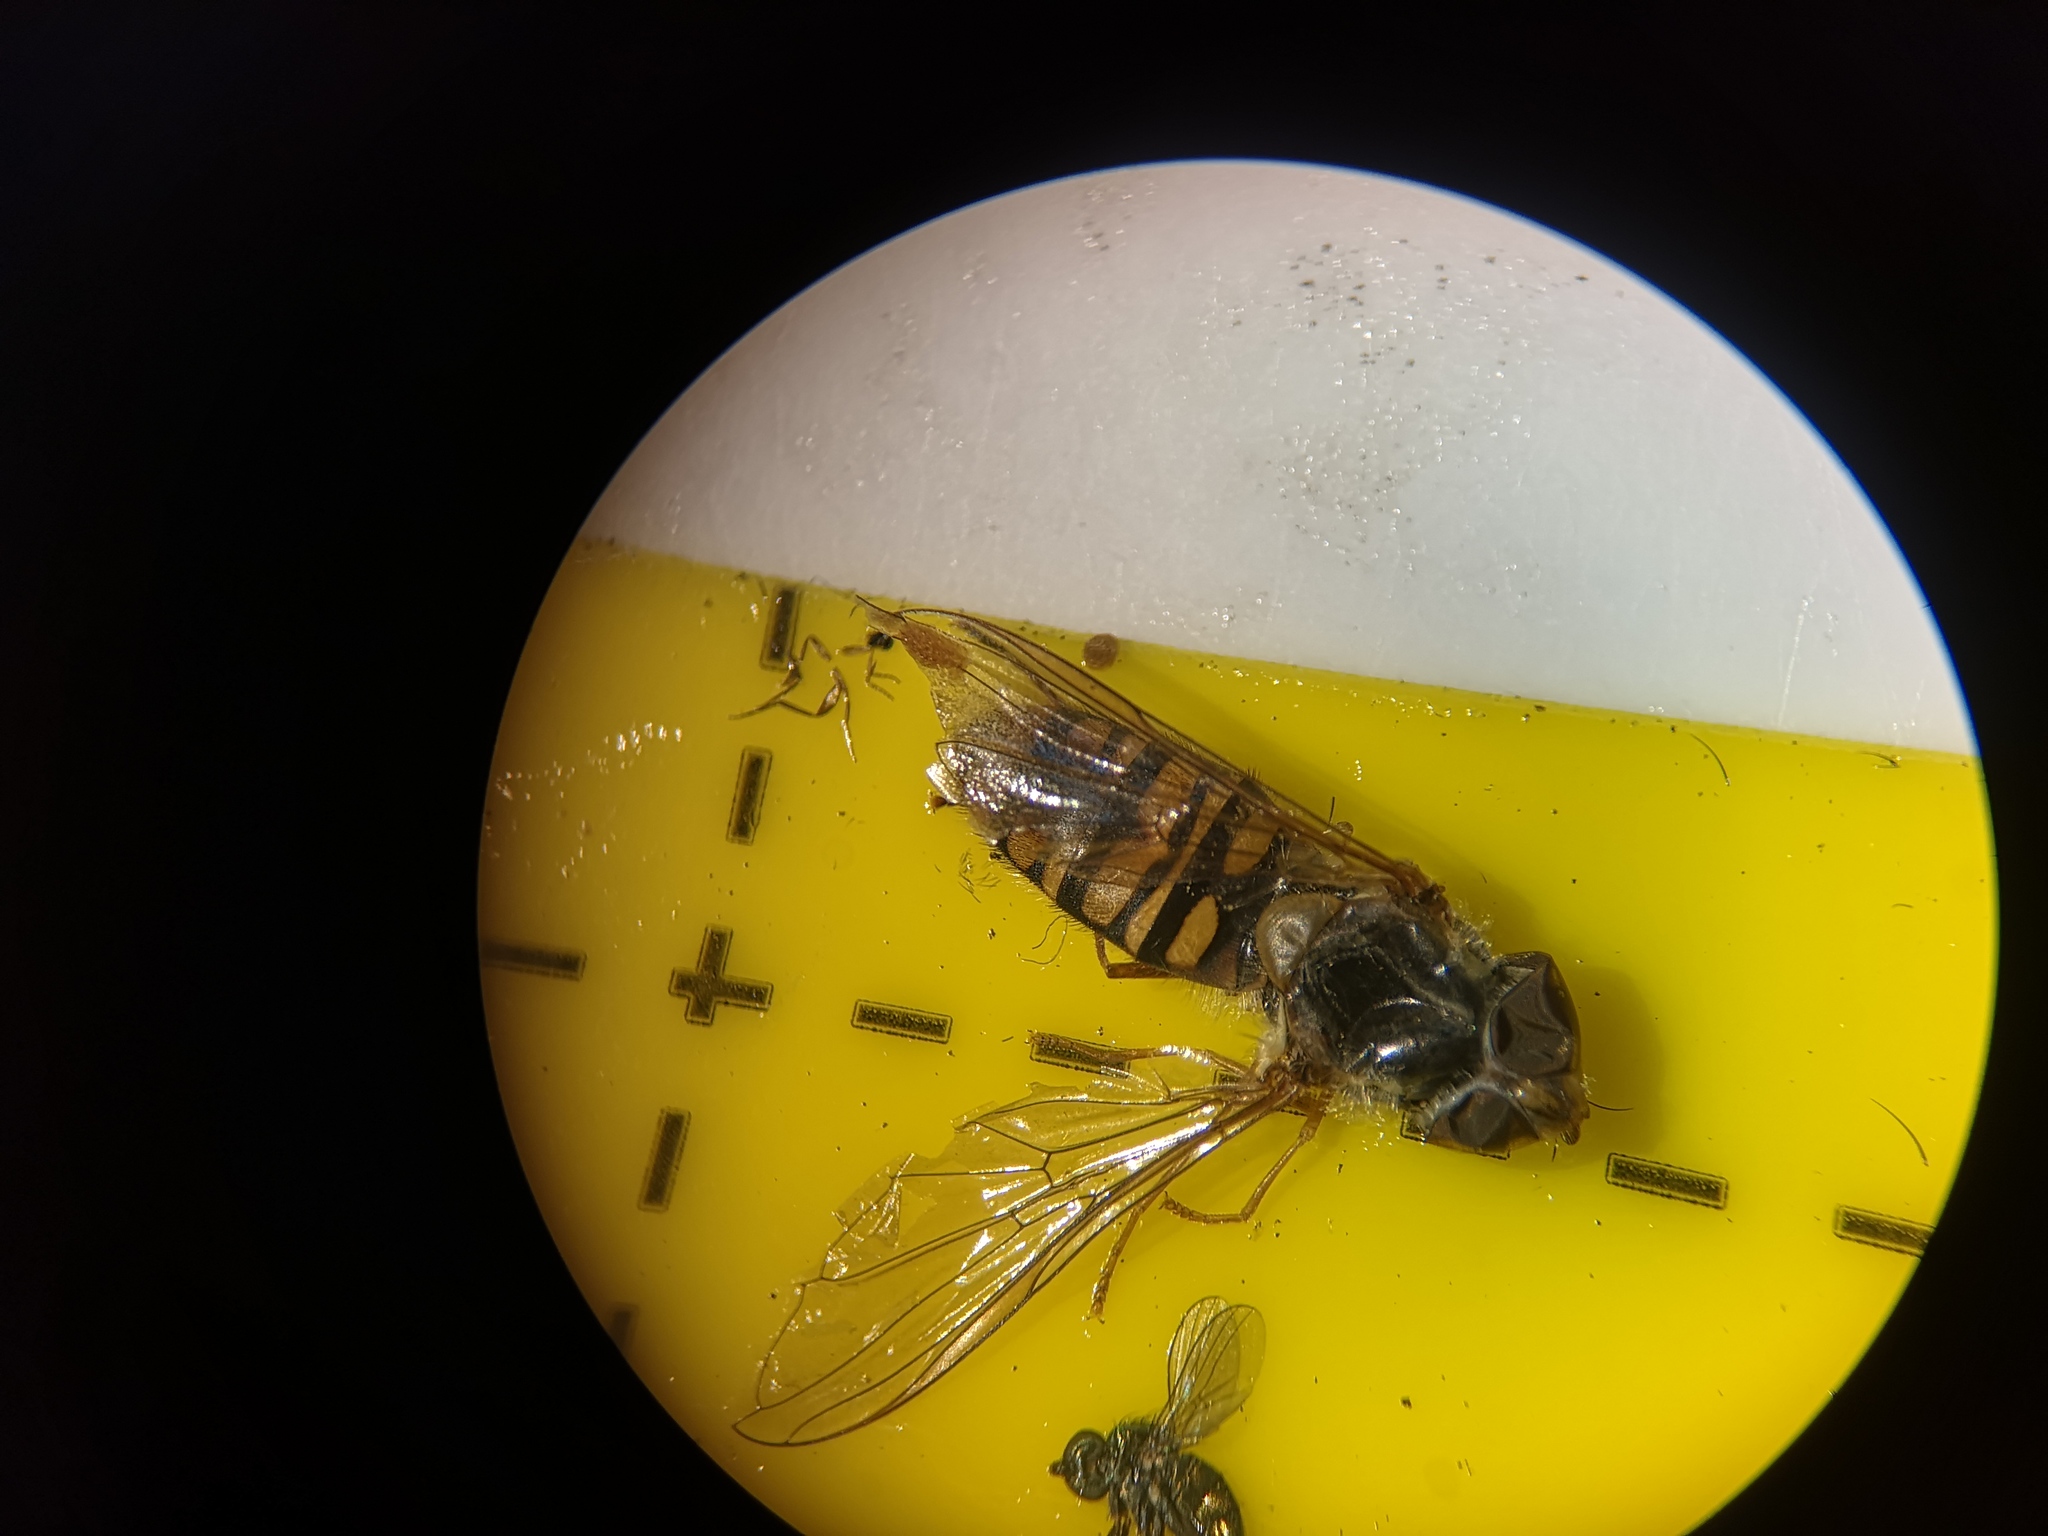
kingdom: Animalia
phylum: Arthropoda
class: Insecta
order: Diptera
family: Syrphidae
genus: Episyrphus
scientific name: Episyrphus balteatus
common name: Marmalade hoverfly
